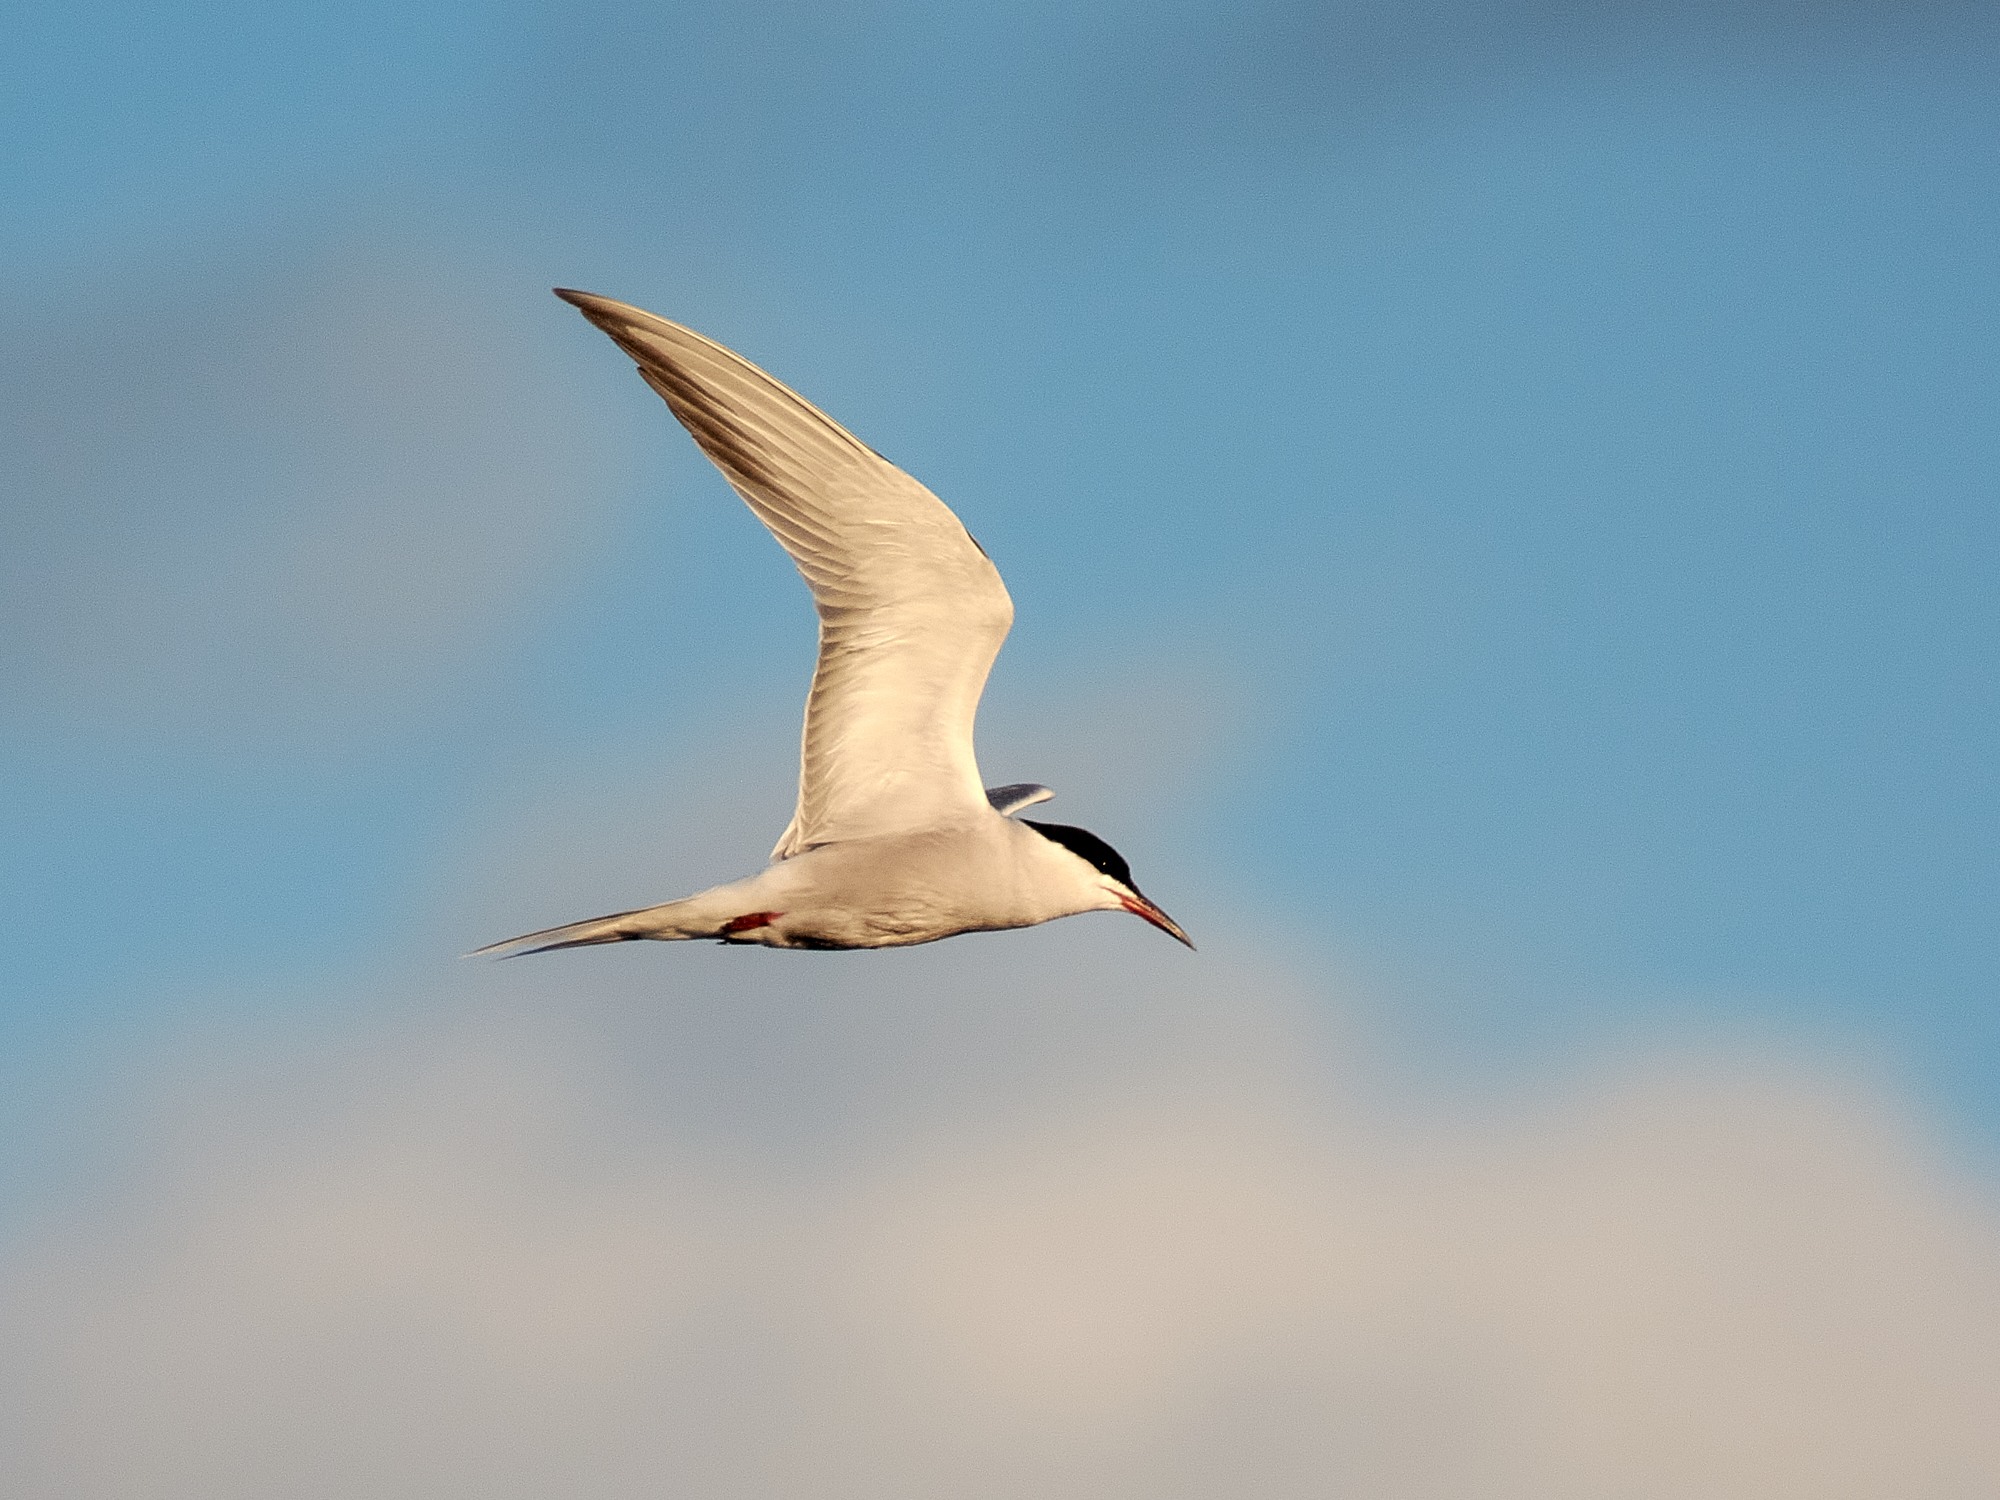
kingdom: Animalia
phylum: Chordata
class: Aves
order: Charadriiformes
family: Laridae
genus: Sterna
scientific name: Sterna hirundo
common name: Common tern
